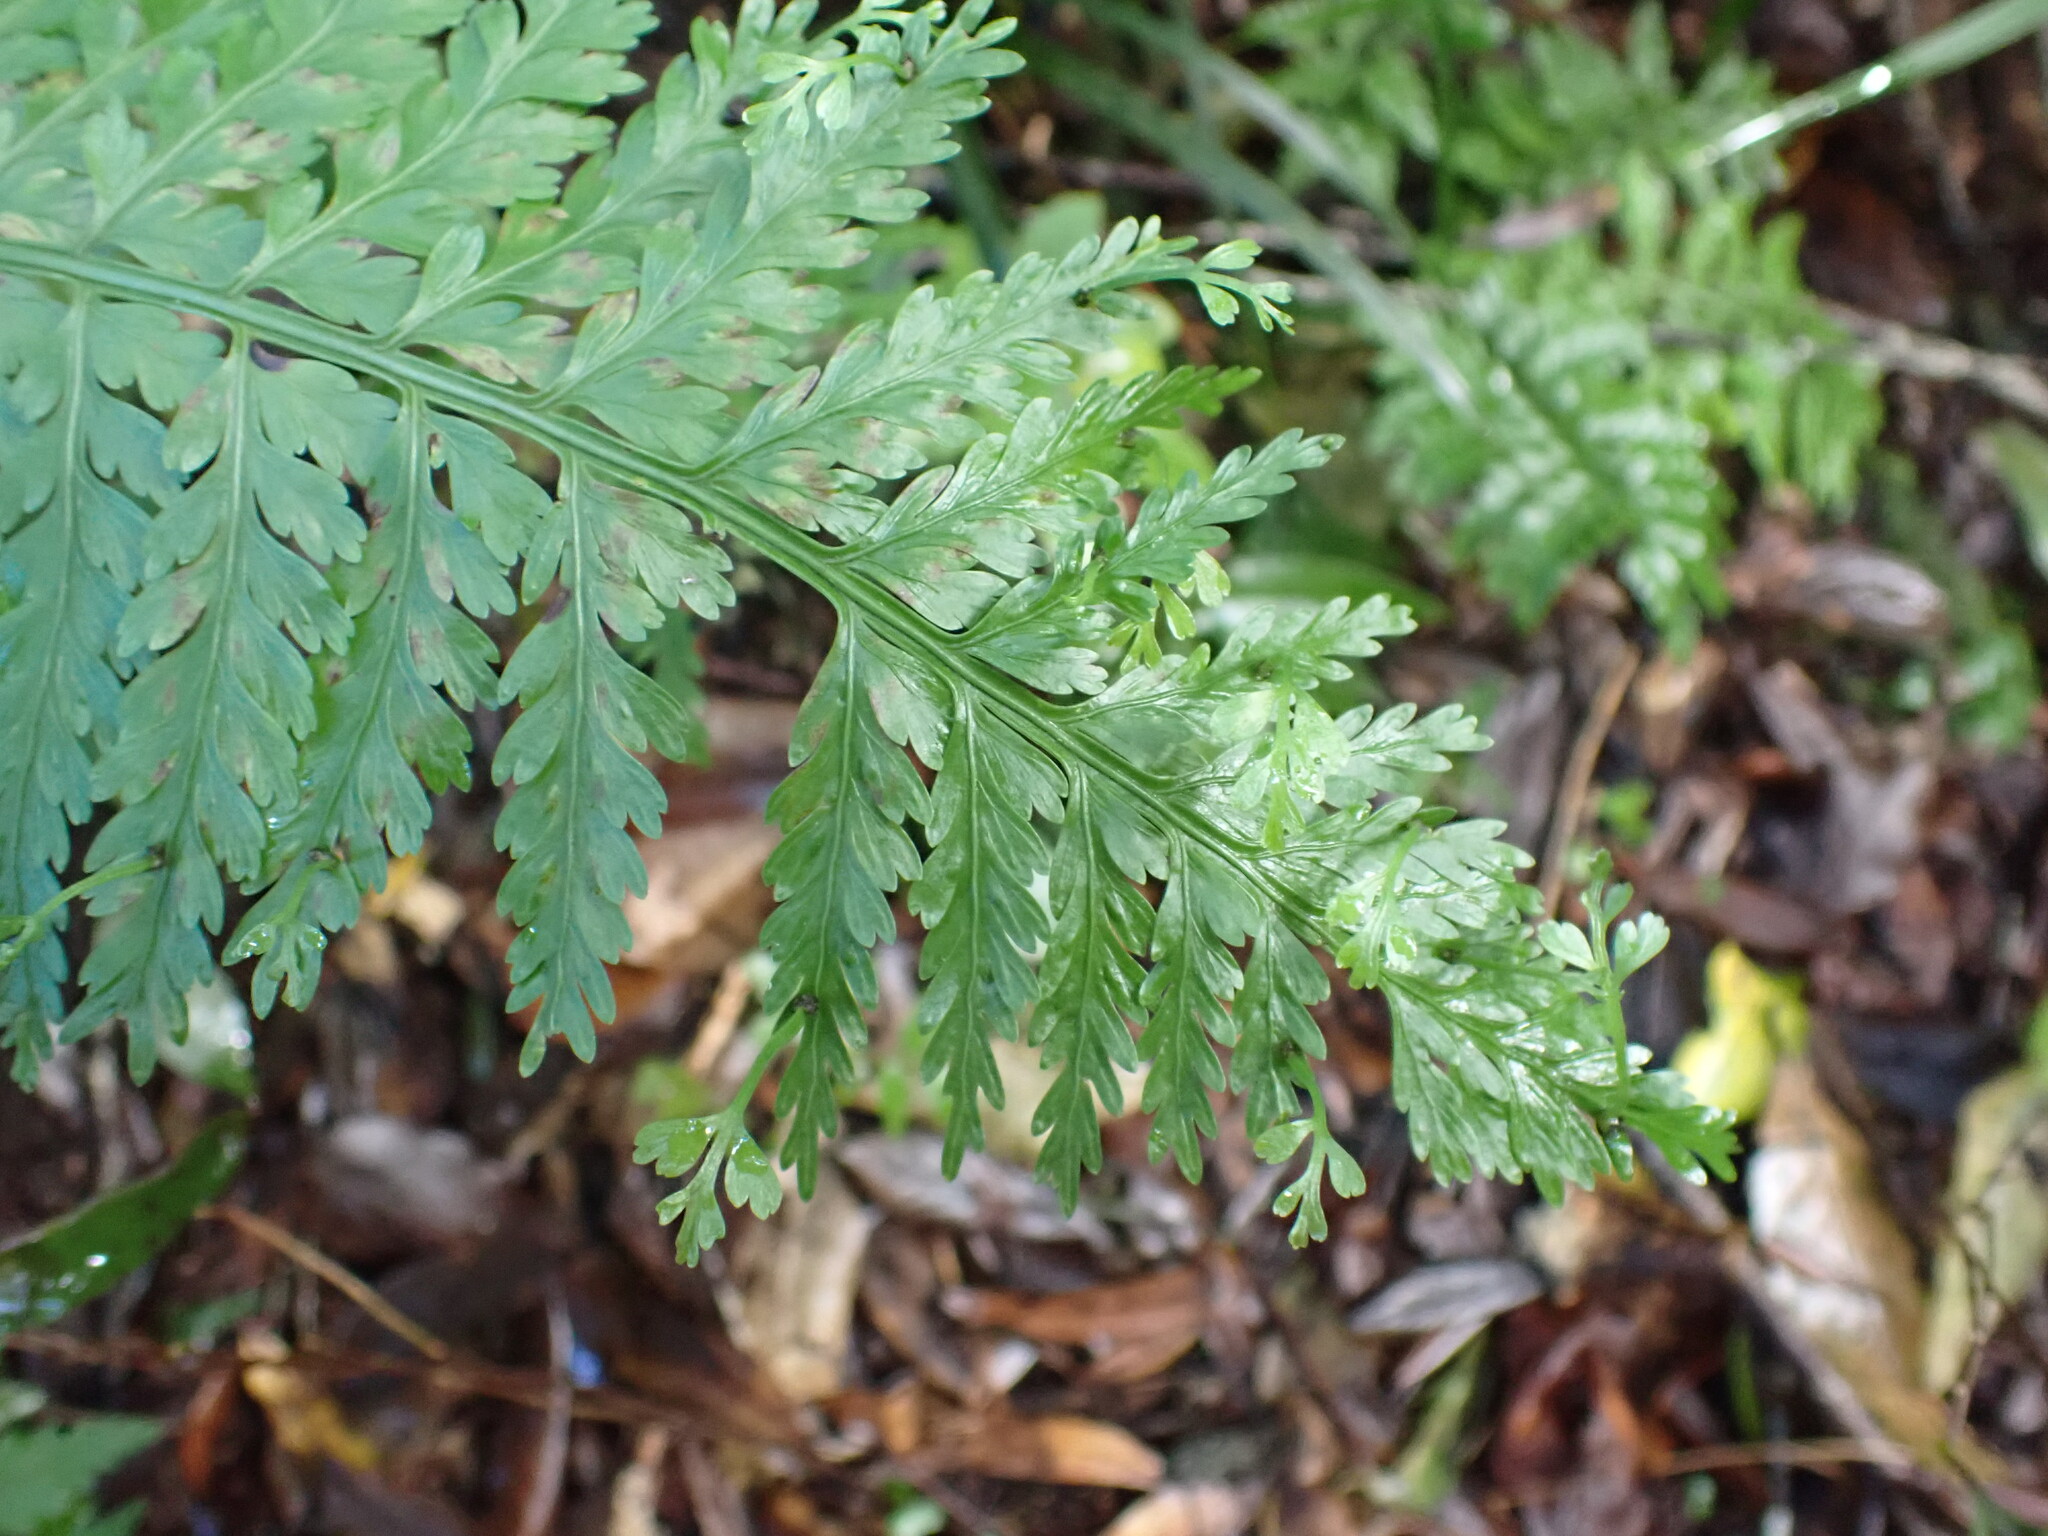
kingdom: Plantae
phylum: Tracheophyta
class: Polypodiopsida
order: Polypodiales
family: Aspleniaceae
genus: Asplenium
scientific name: Asplenium bulbiferum
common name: Mother fern
